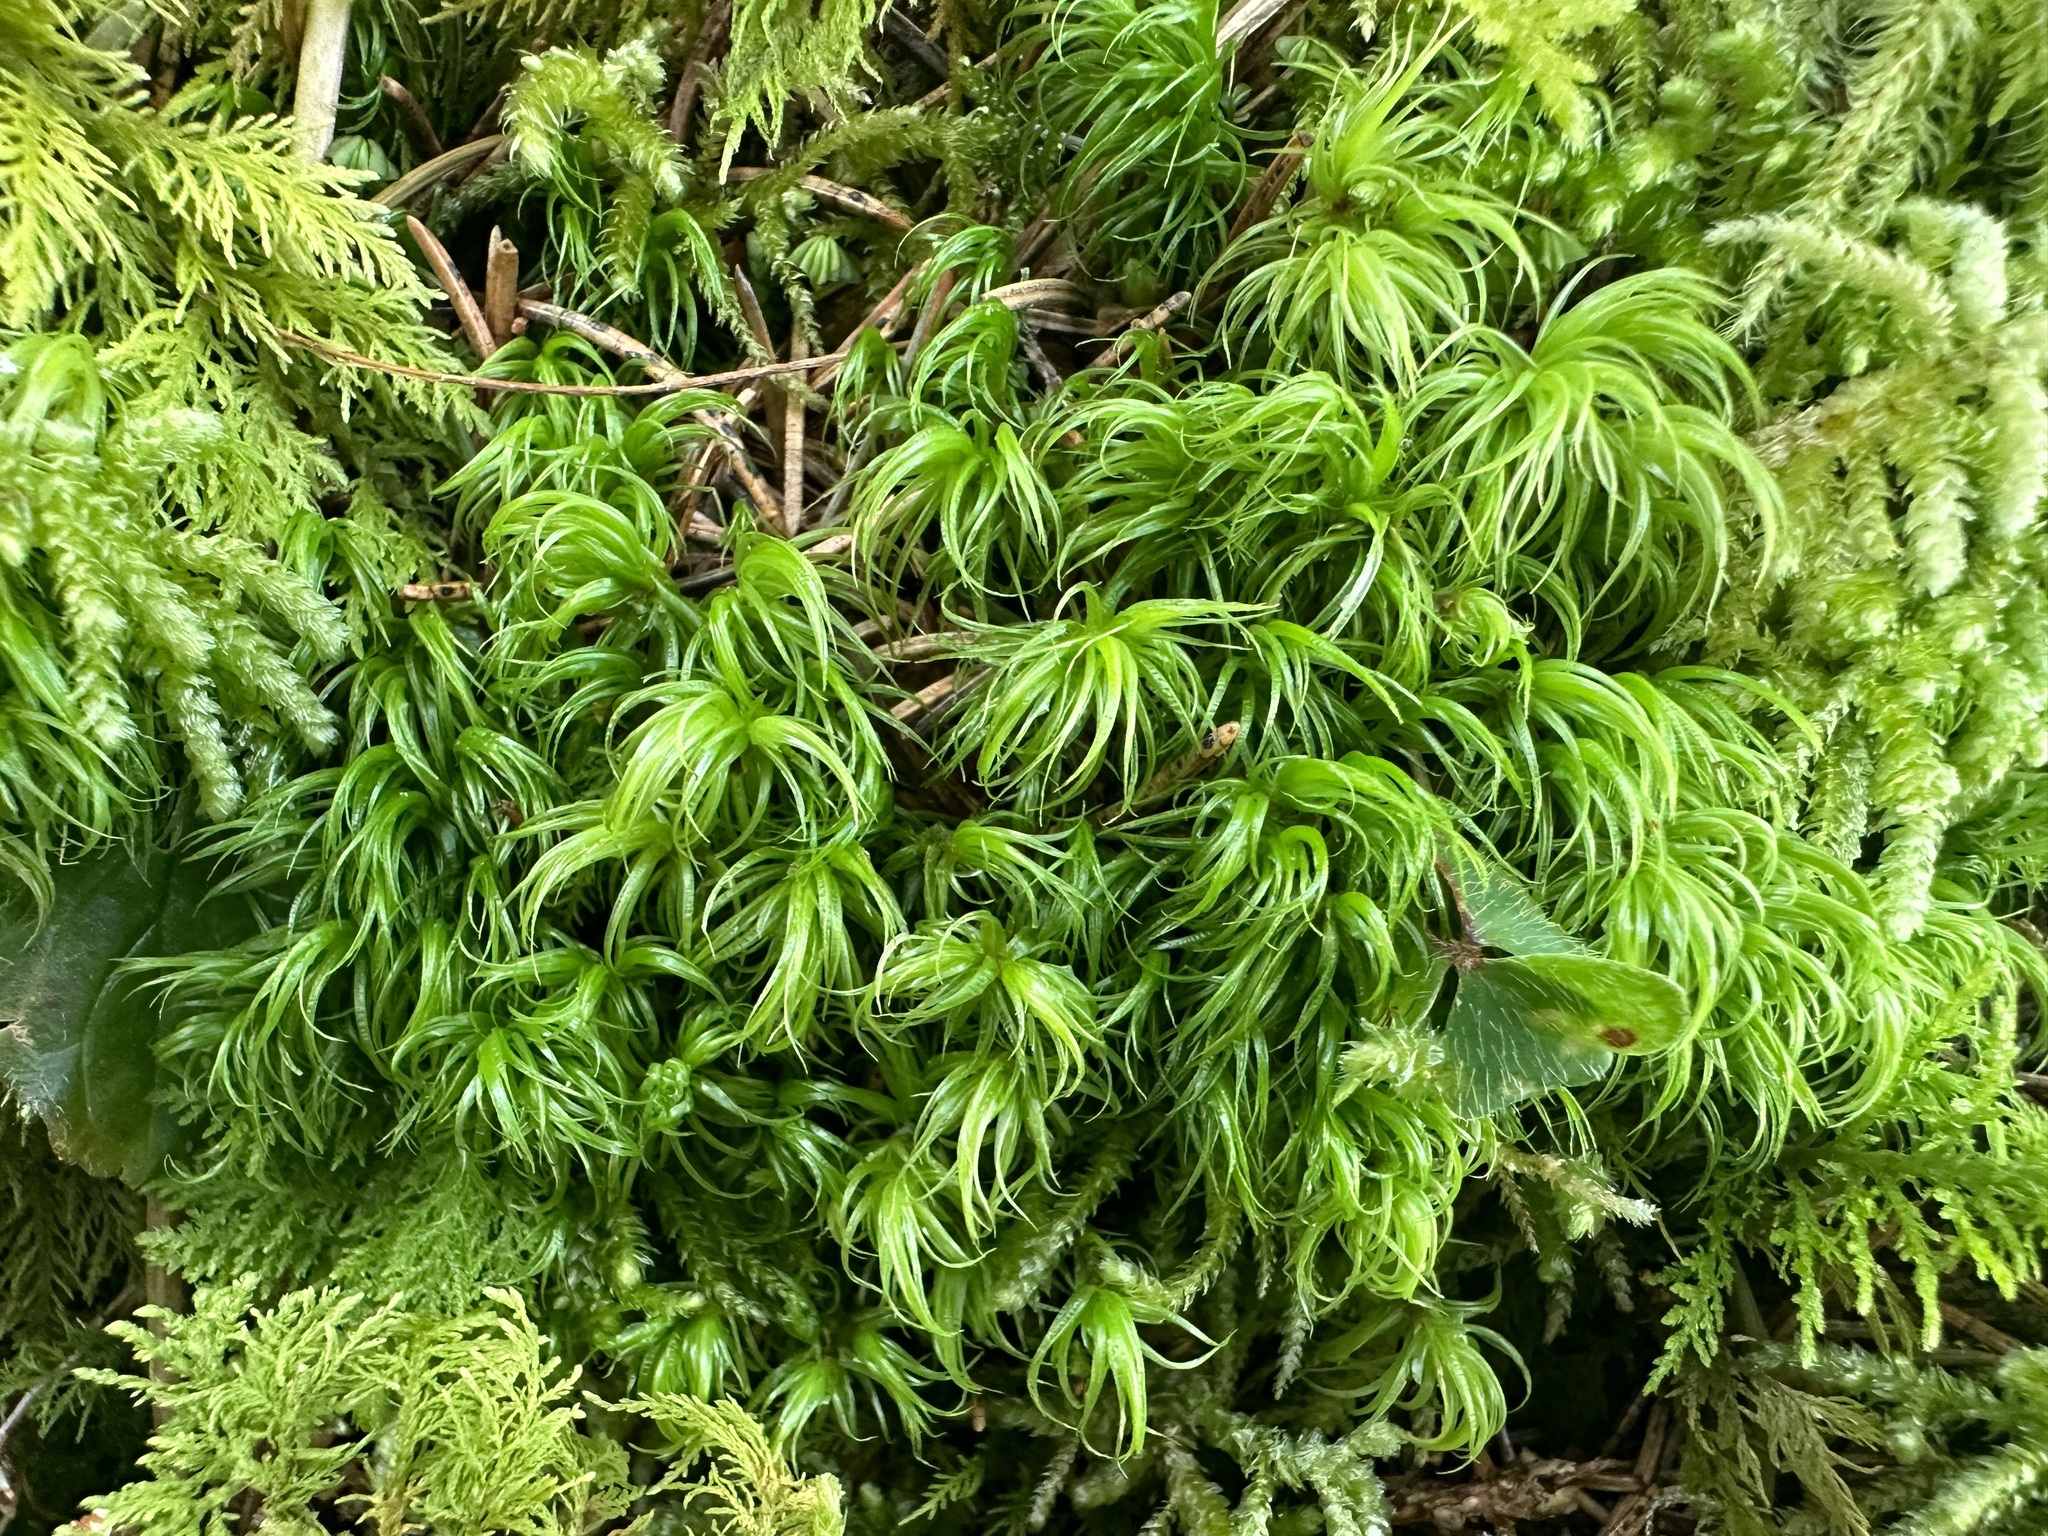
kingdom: Plantae
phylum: Bryophyta
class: Bryopsida
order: Dicranales
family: Dicranaceae
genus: Dicranum
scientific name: Dicranum scoparium
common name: Broom fork-moss
